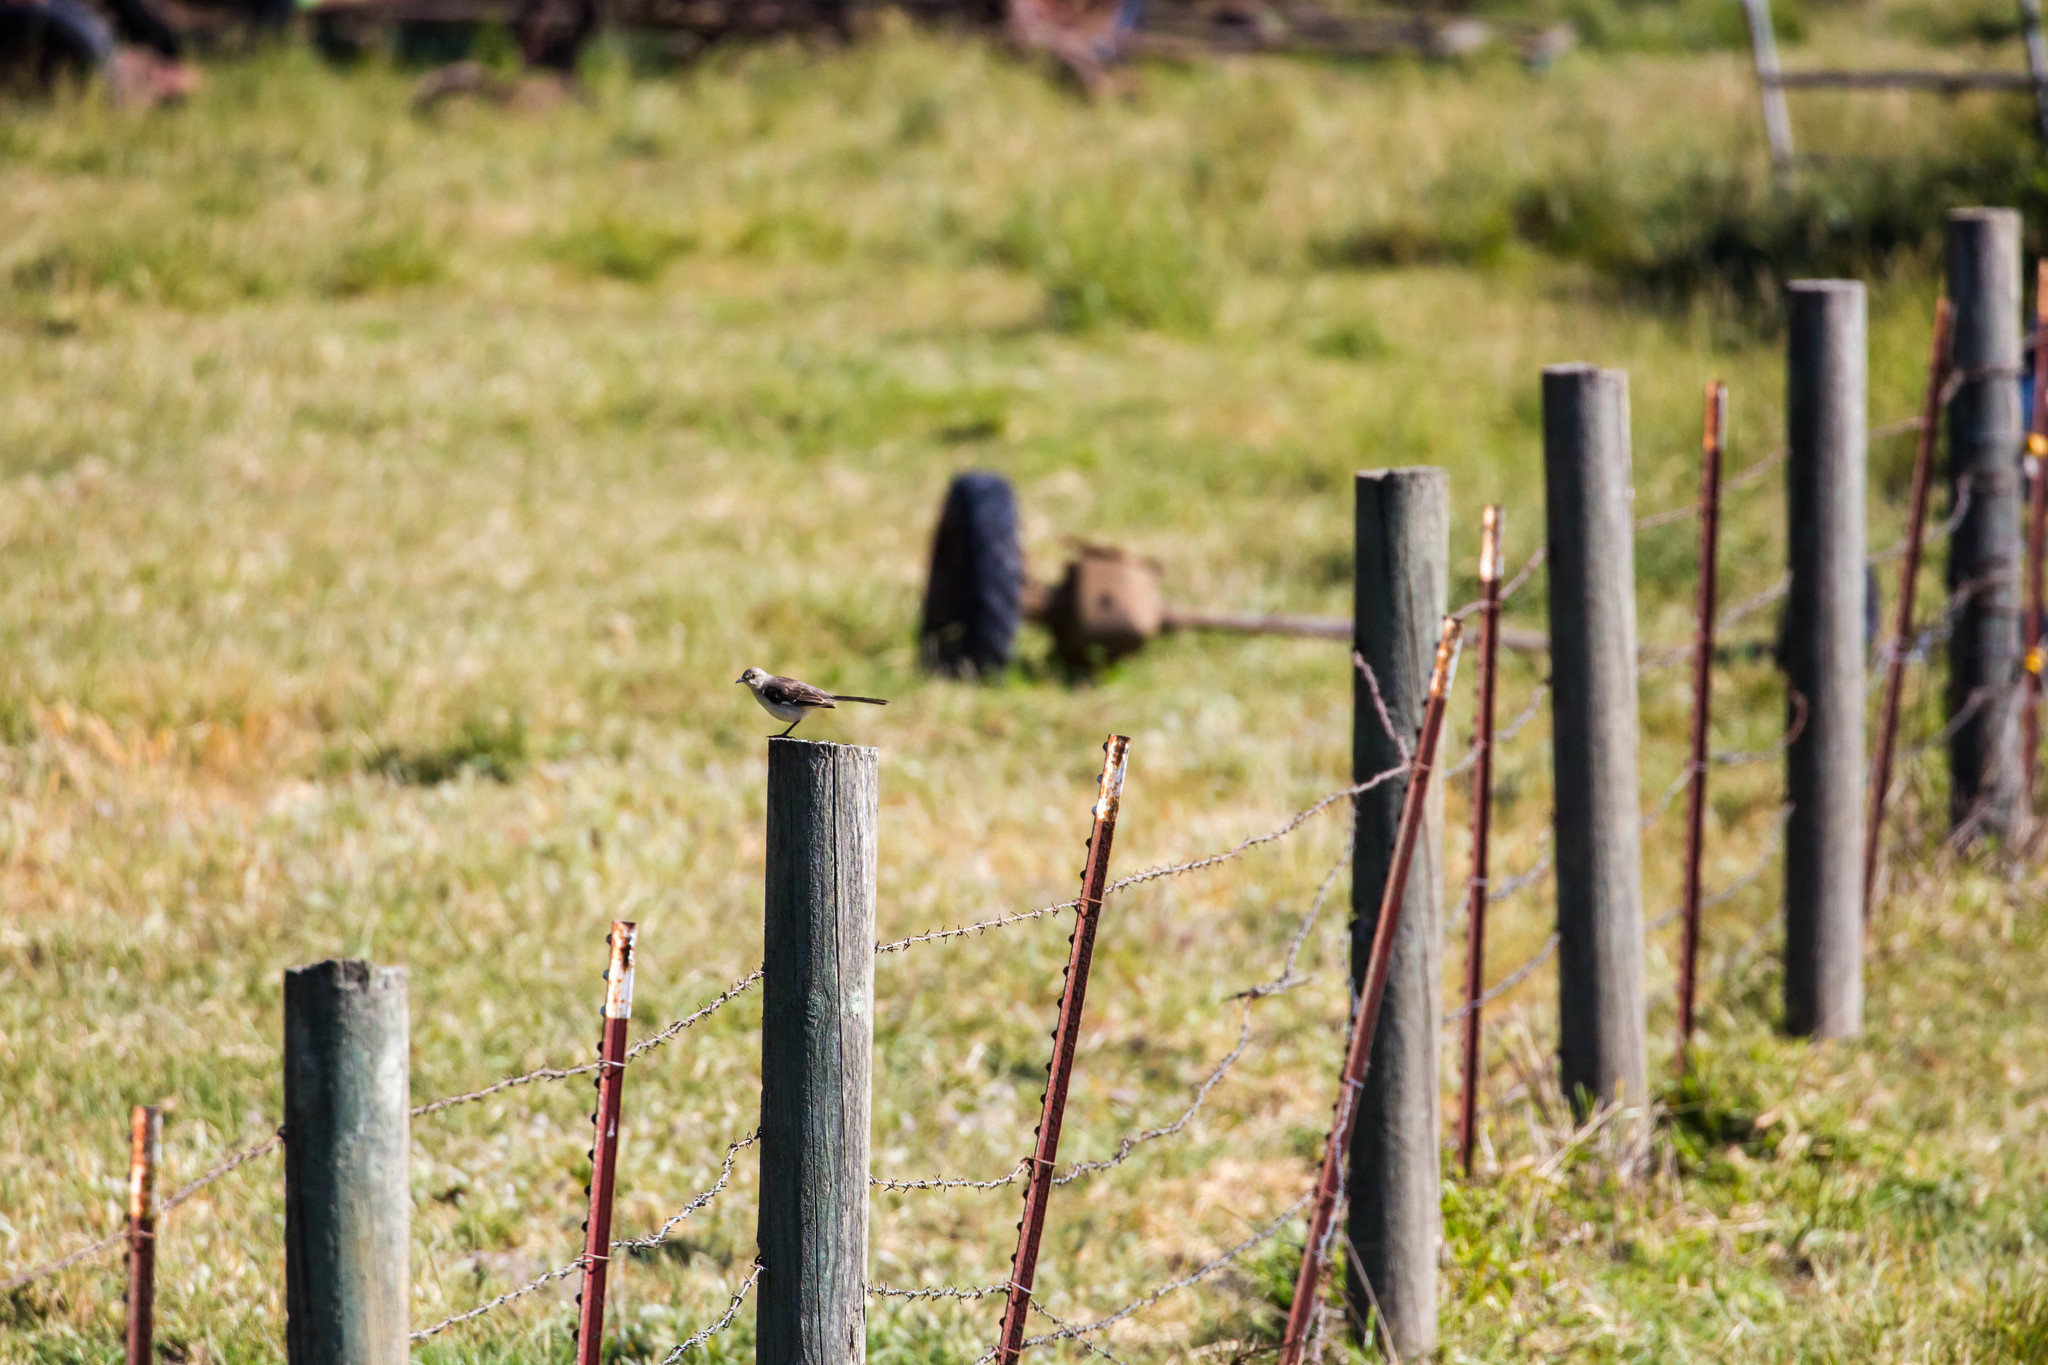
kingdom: Animalia
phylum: Chordata
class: Aves
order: Passeriformes
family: Mimidae
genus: Mimus
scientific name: Mimus polyglottos
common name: Northern mockingbird
